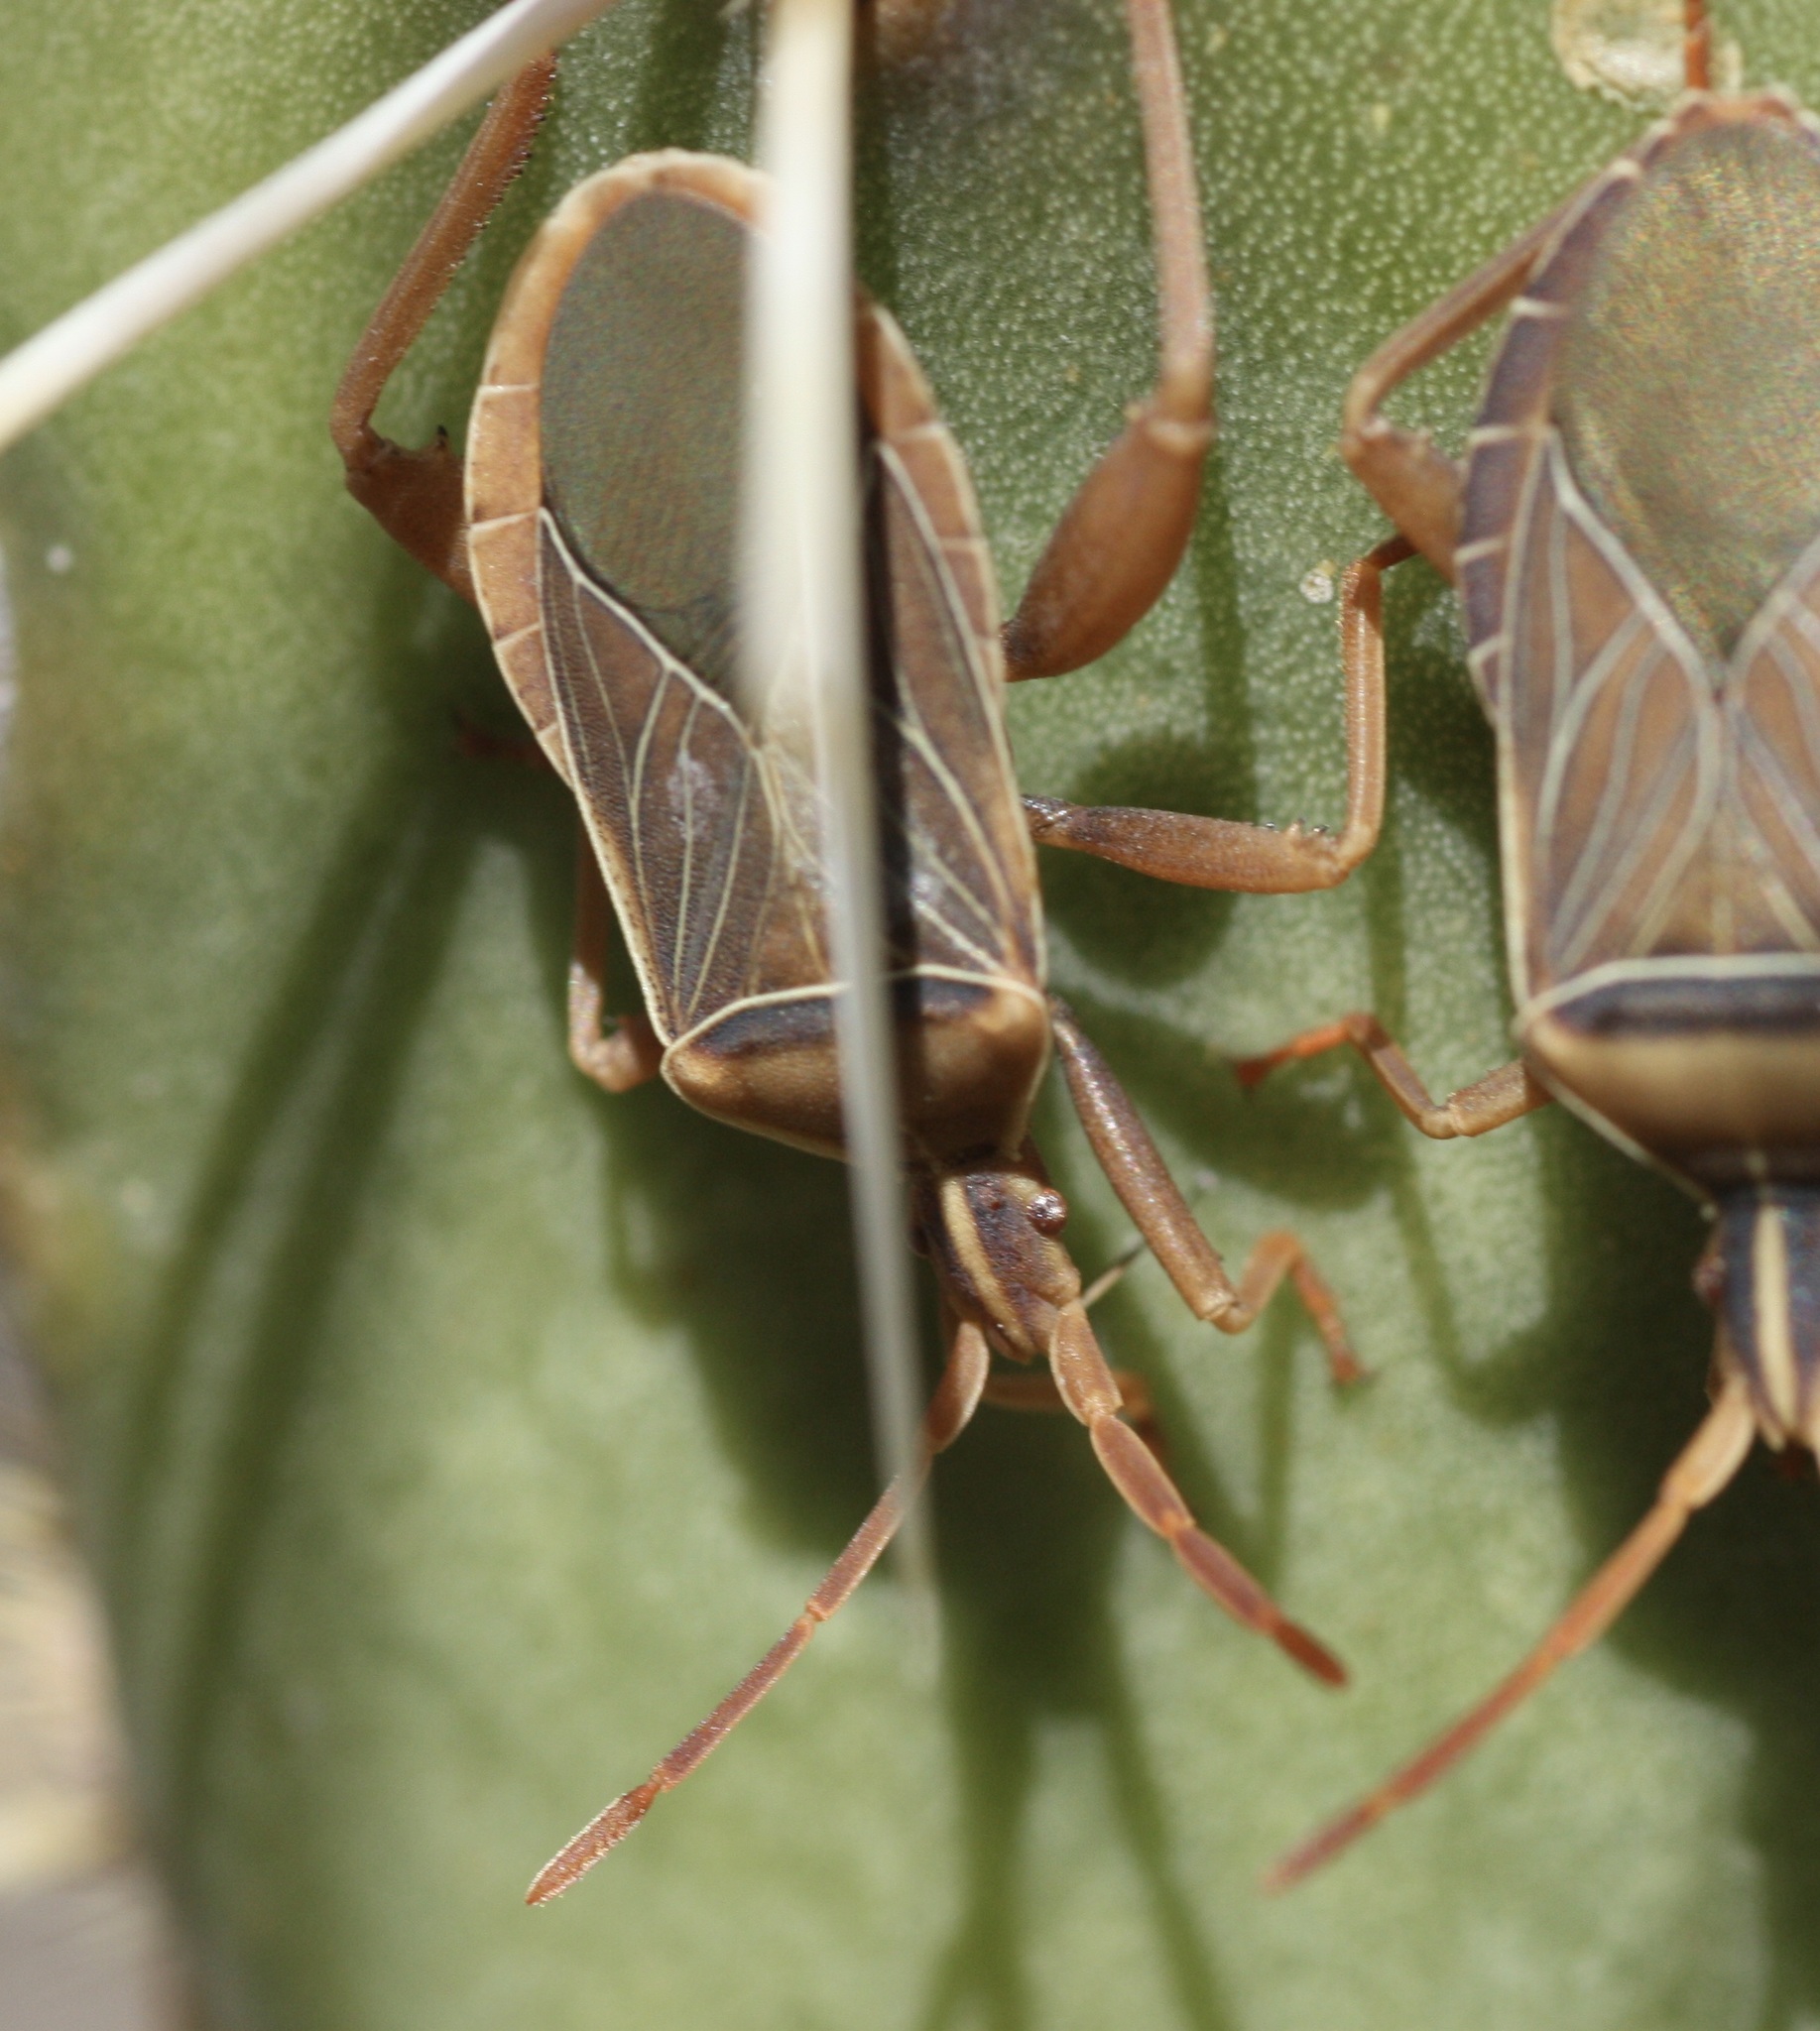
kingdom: Animalia
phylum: Arthropoda
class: Insecta
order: Hemiptera
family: Coreidae
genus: Chelinidea
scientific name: Chelinidea vittiger
